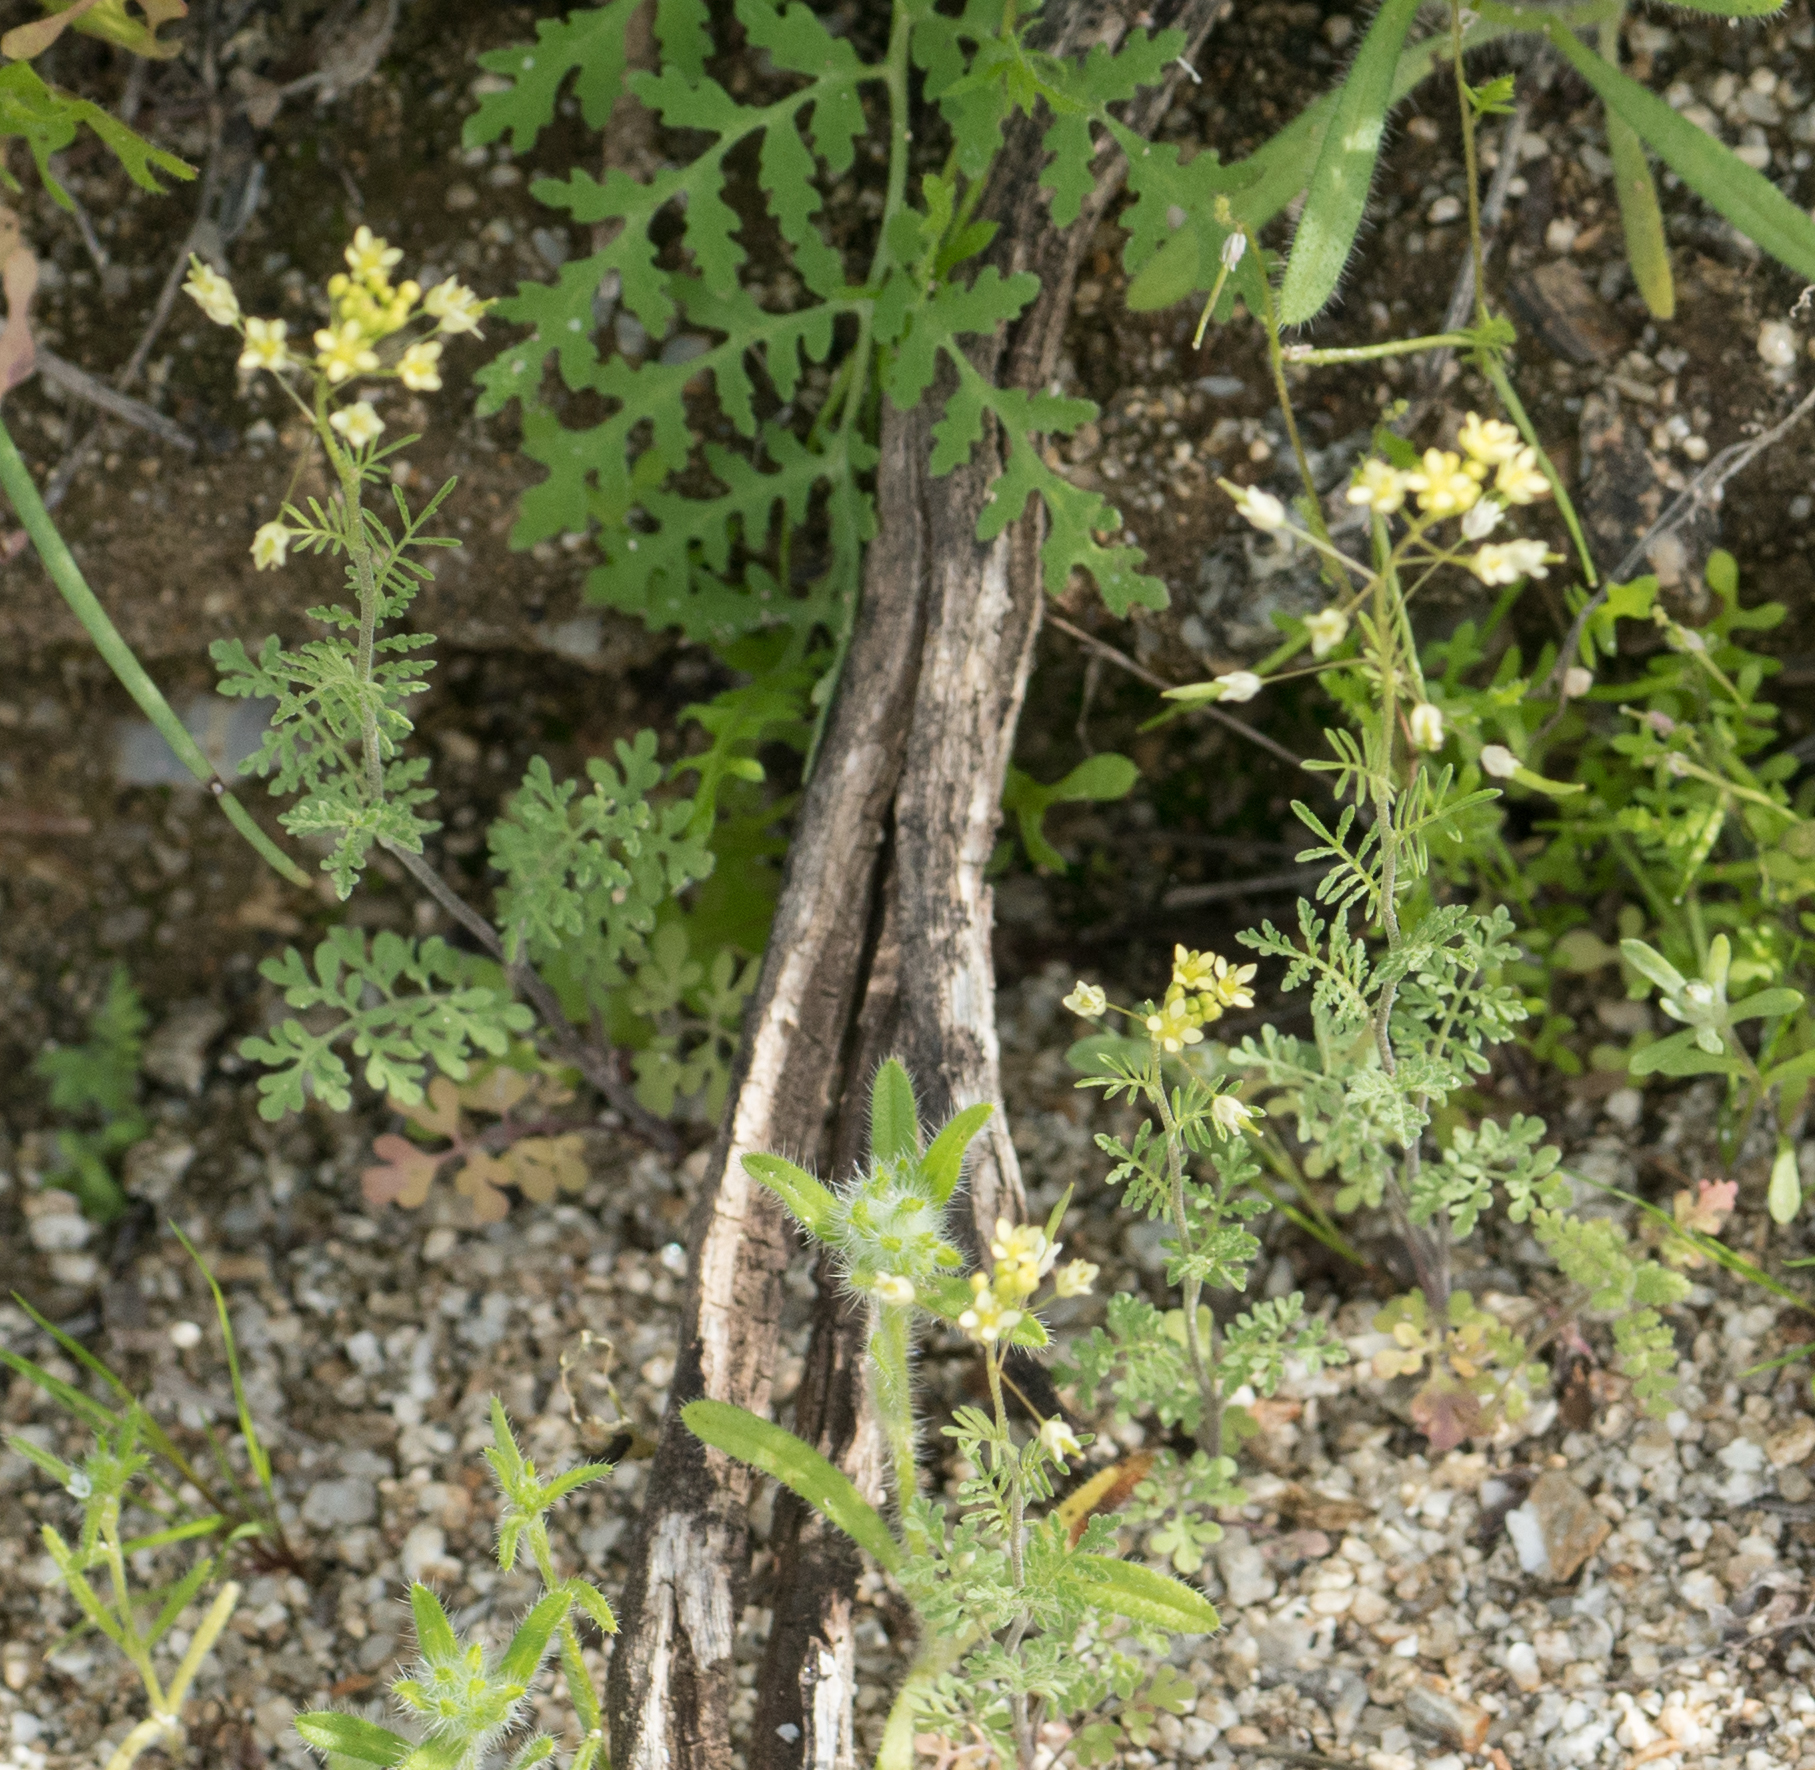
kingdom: Plantae
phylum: Tracheophyta
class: Magnoliopsida
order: Brassicales
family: Brassicaceae
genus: Descurainia
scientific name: Descurainia pinnata
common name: Western tansy mustard
